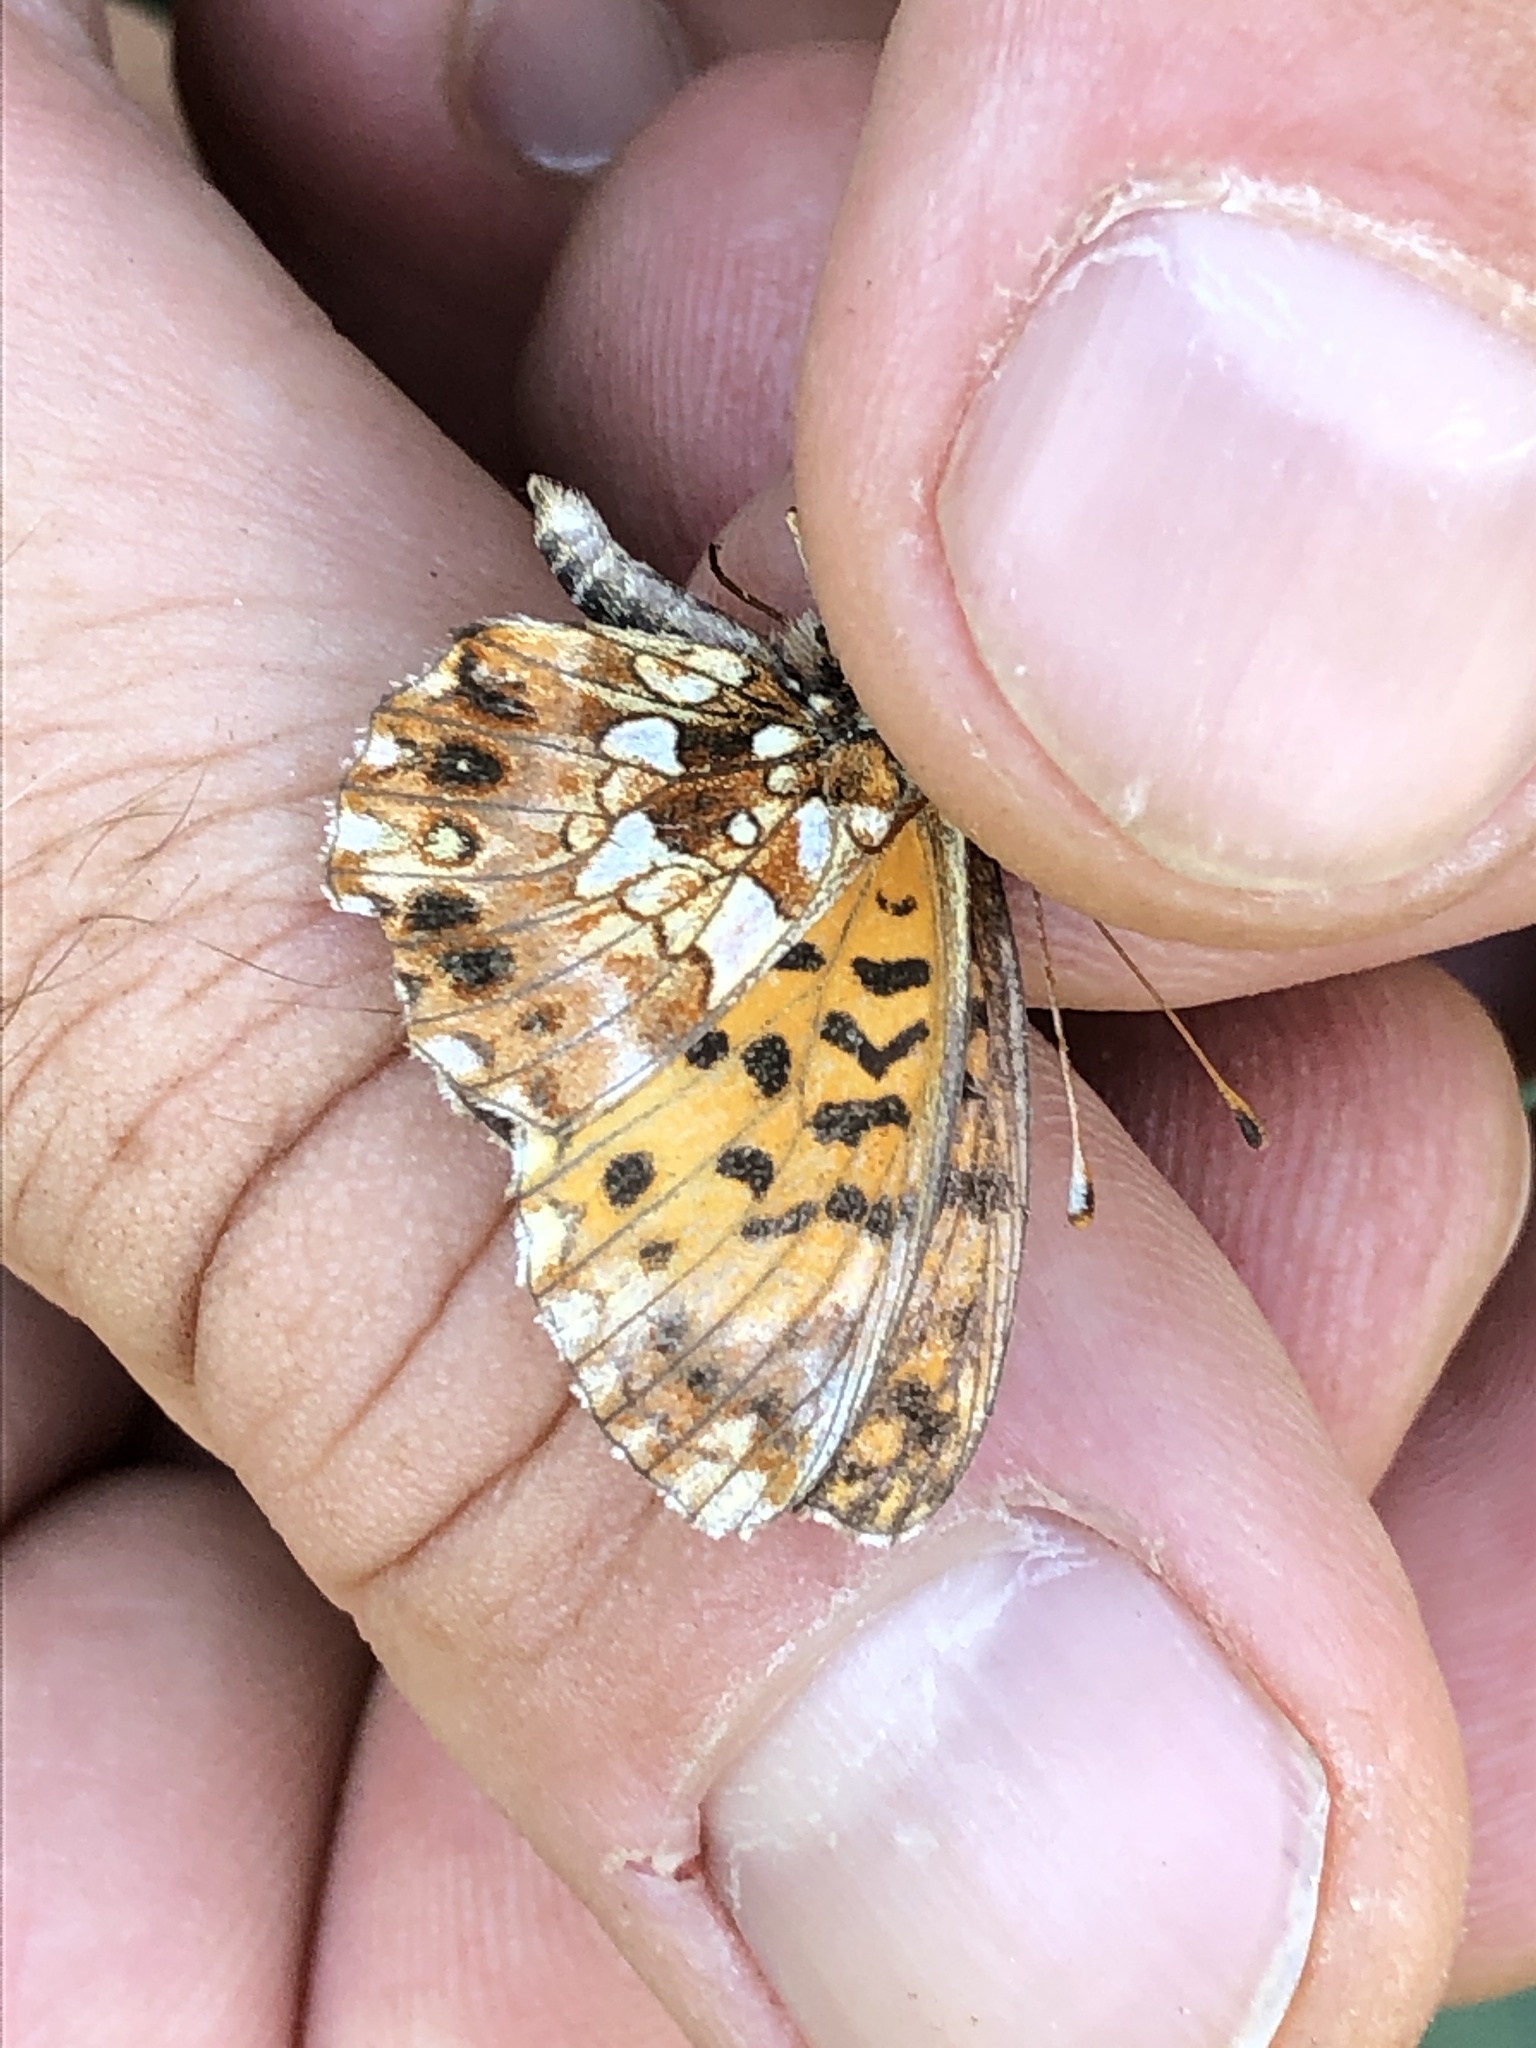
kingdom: Animalia
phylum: Arthropoda
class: Insecta
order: Lepidoptera
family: Nymphalidae
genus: Boloria
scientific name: Boloria dia
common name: Weaver's fritillary
